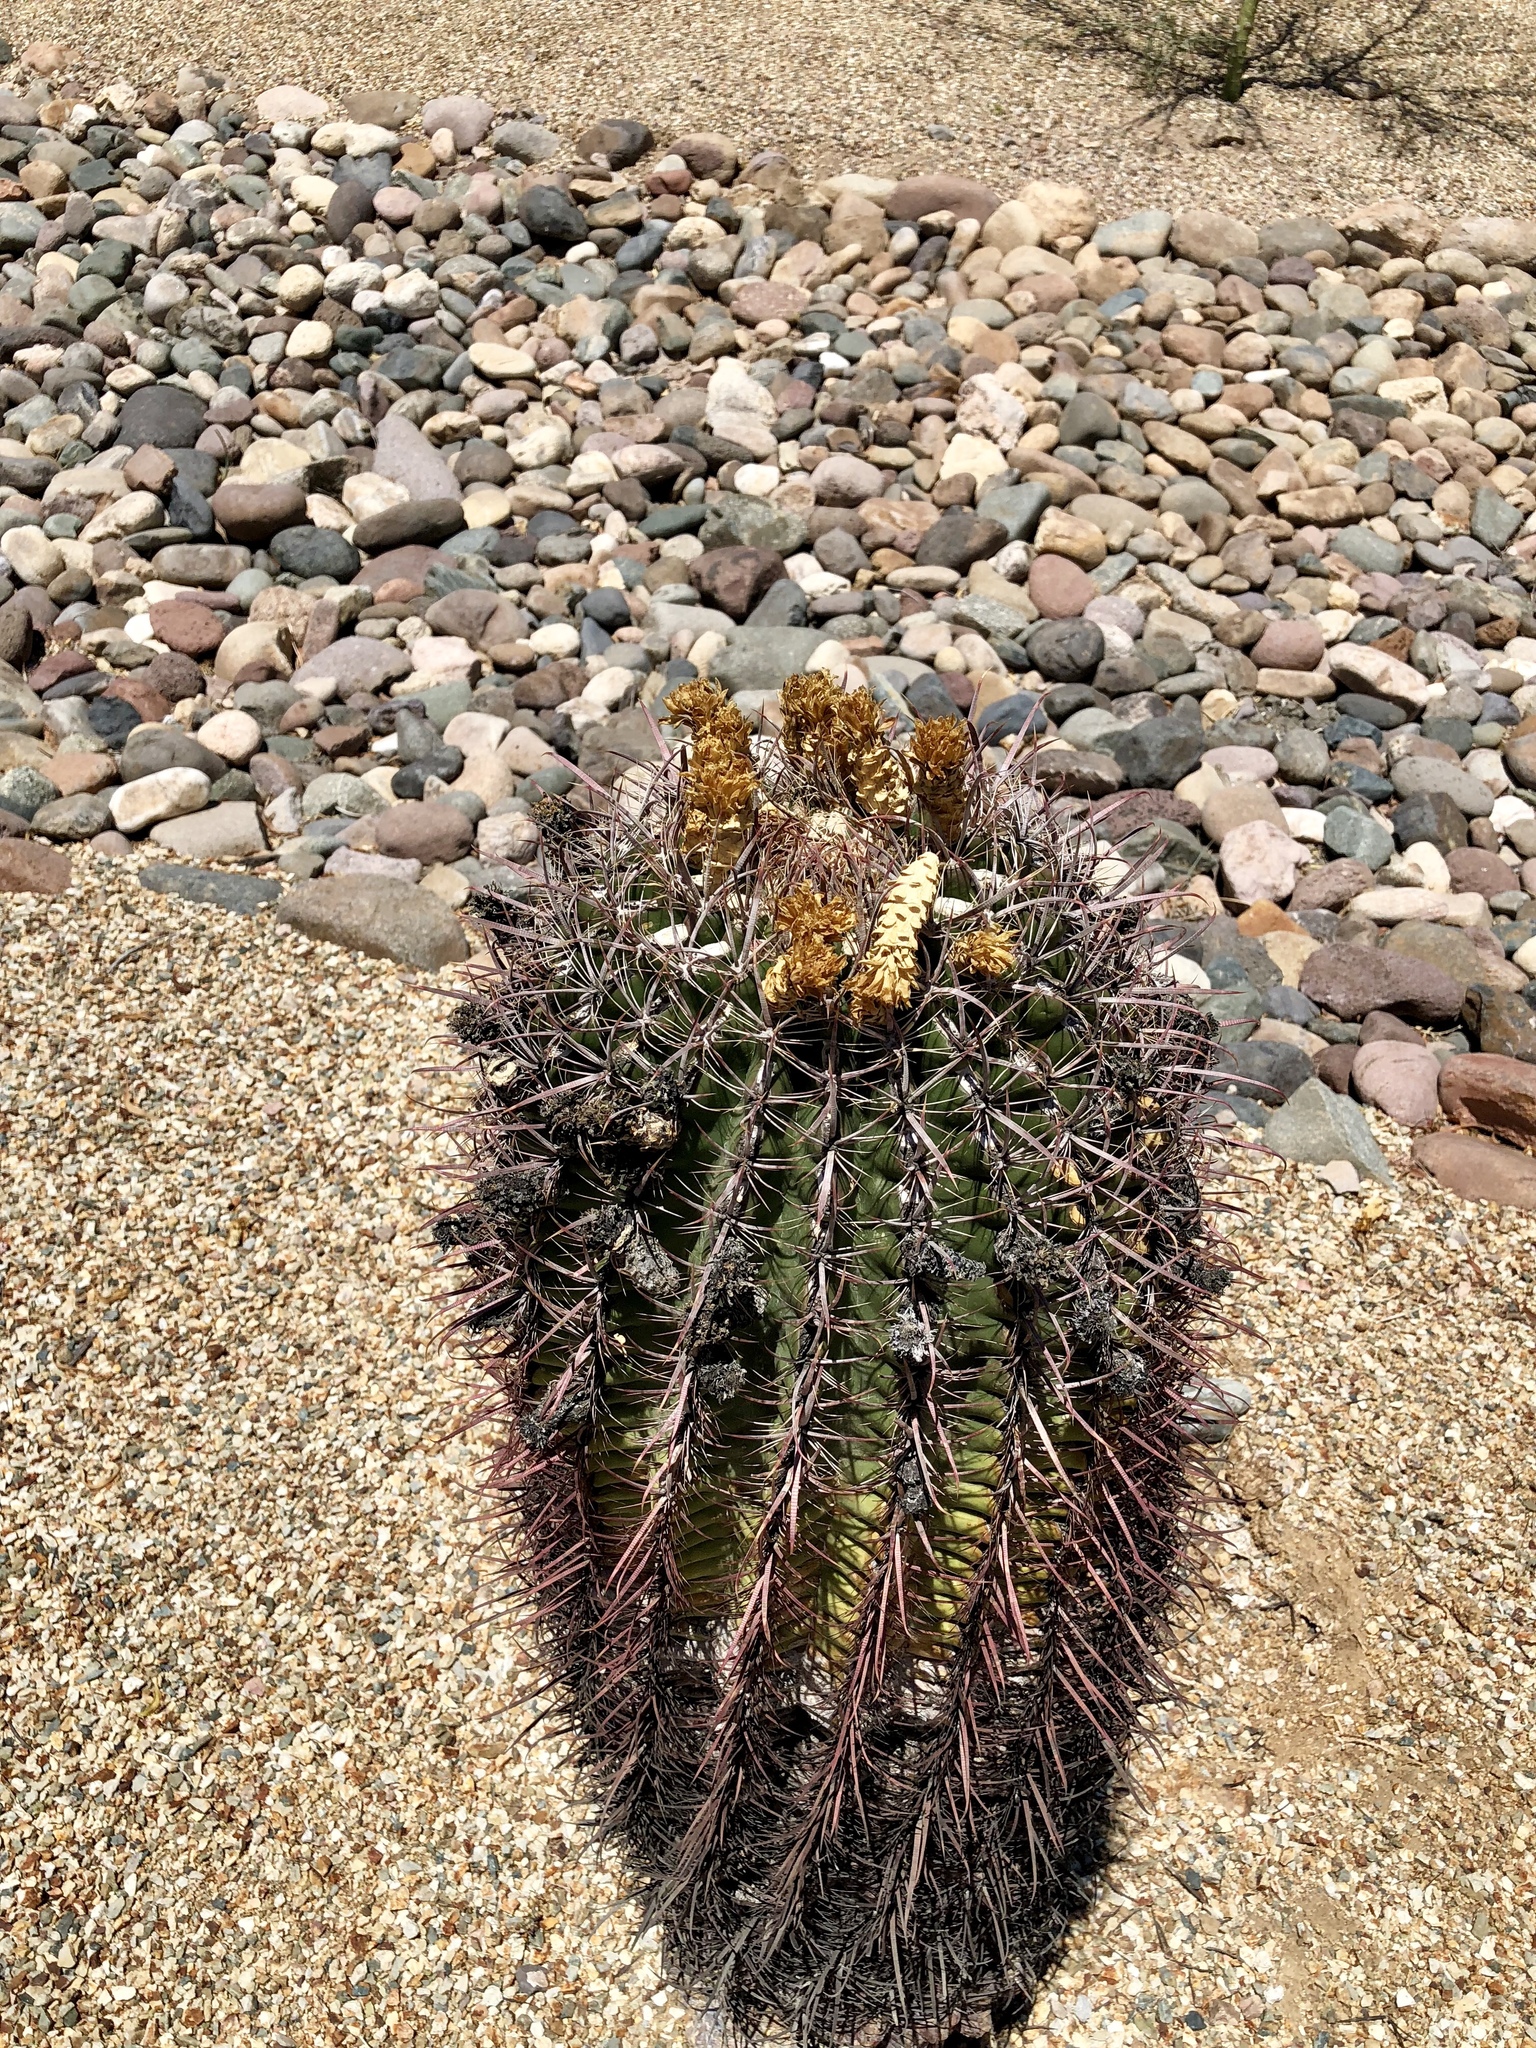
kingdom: Plantae
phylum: Tracheophyta
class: Magnoliopsida
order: Caryophyllales
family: Cactaceae
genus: Ferocactus
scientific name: Ferocactus cylindraceus
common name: California barrel cactus
